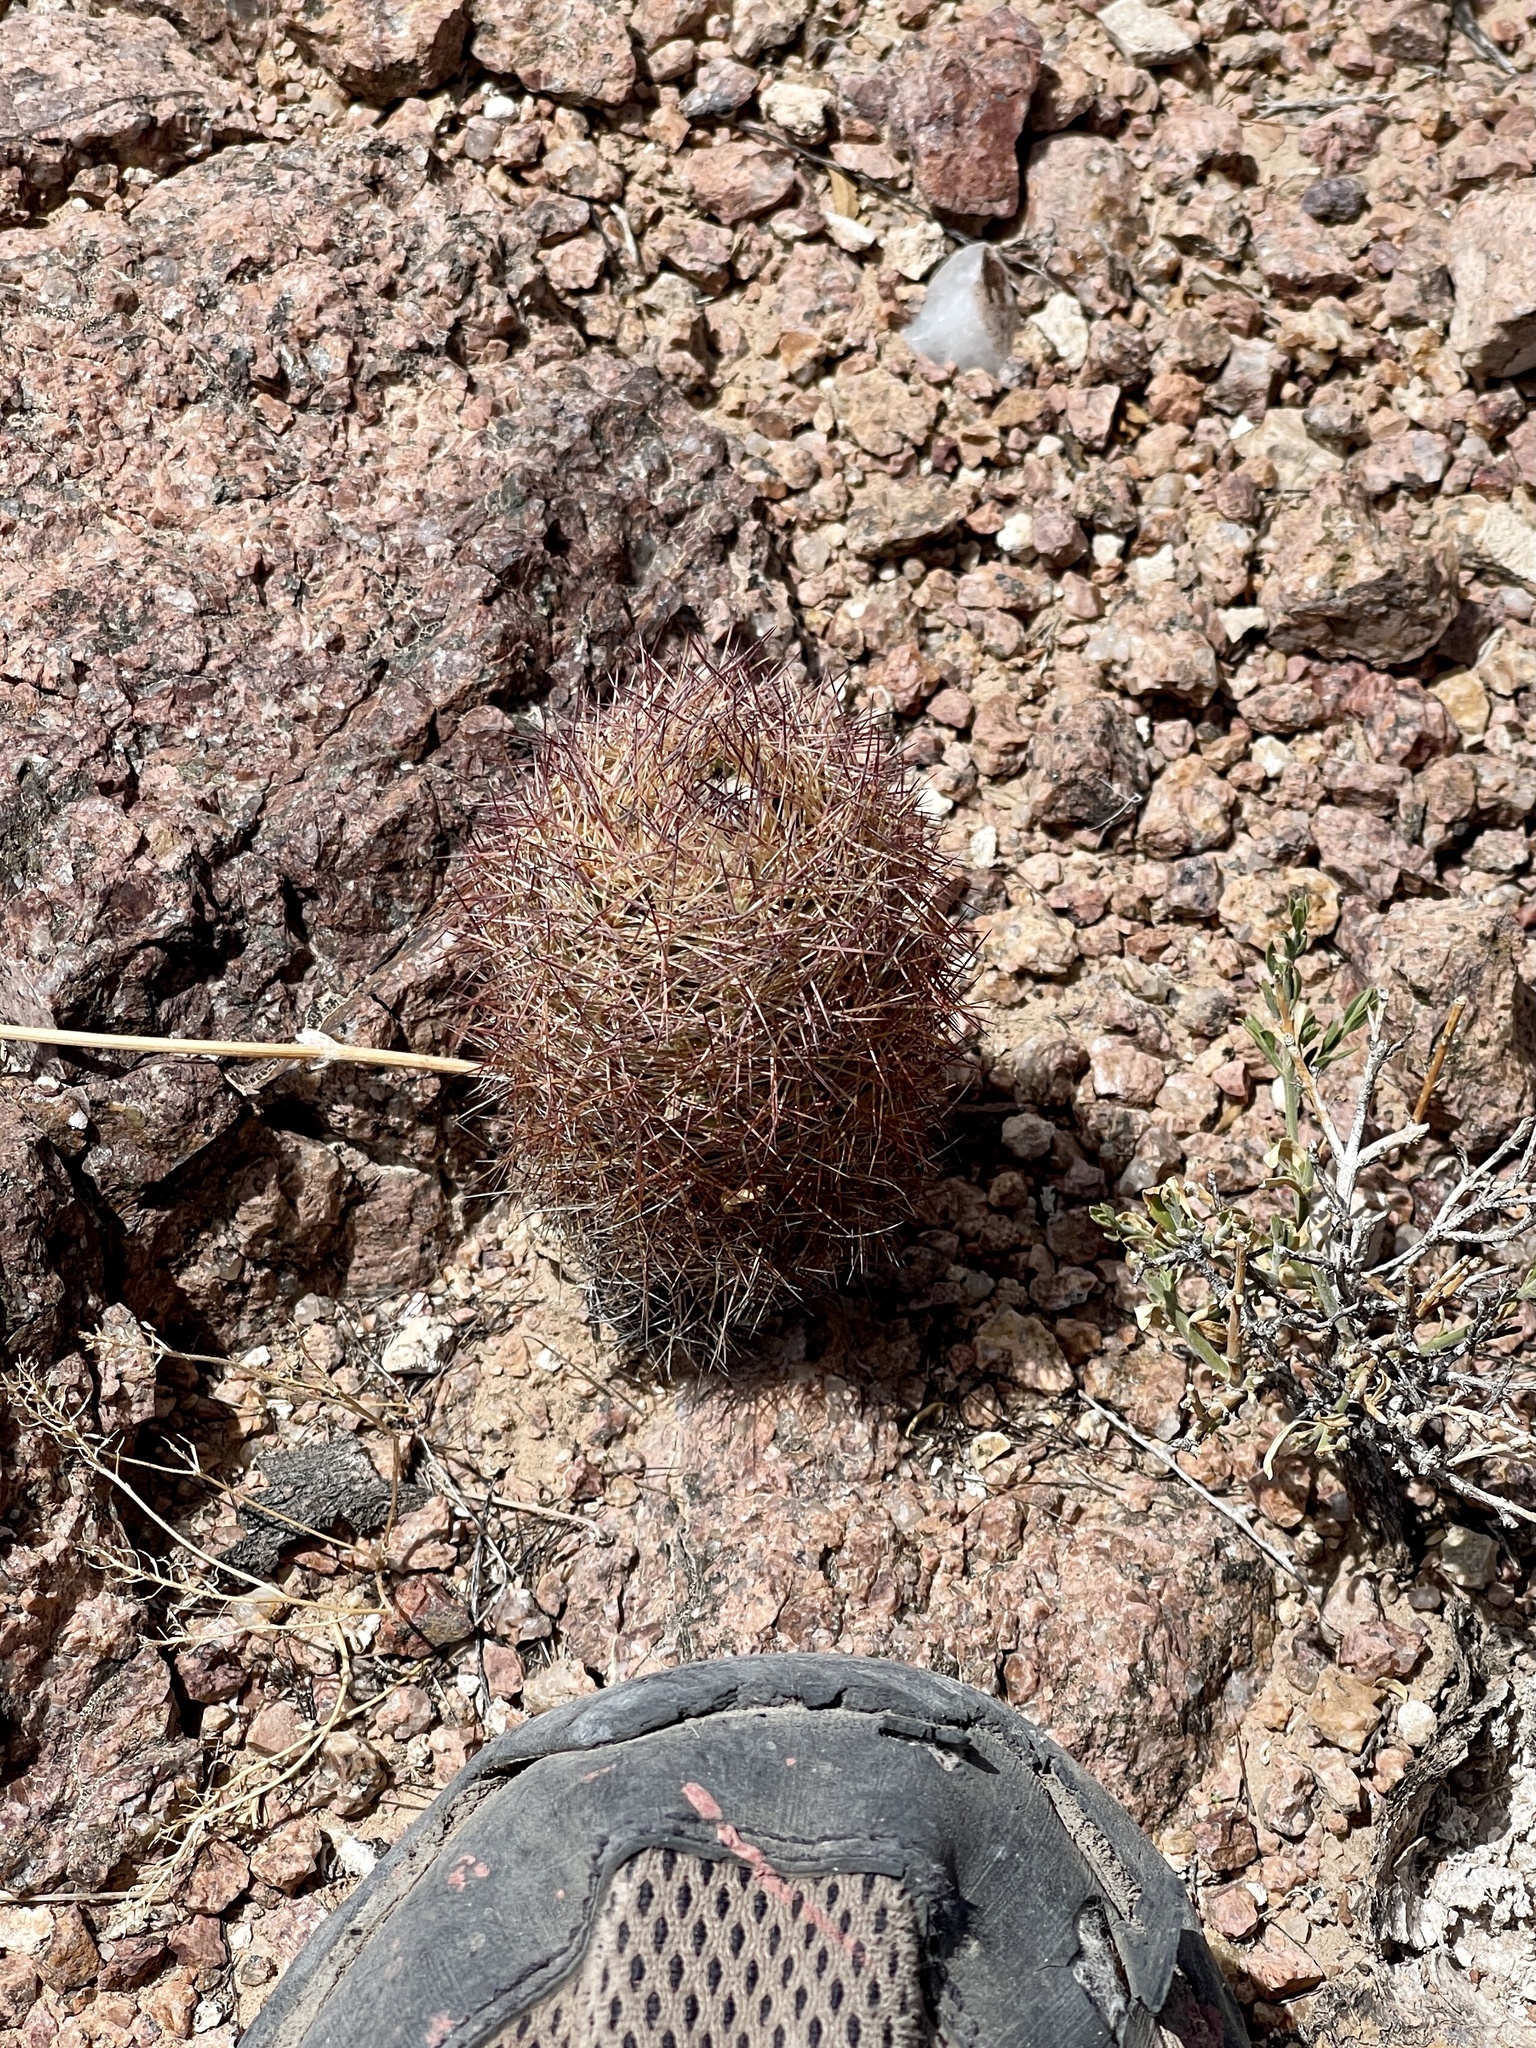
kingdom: Plantae
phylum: Tracheophyta
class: Magnoliopsida
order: Caryophyllales
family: Cactaceae
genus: Sclerocactus
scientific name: Sclerocactus intertextus
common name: White fish-hook cactus
